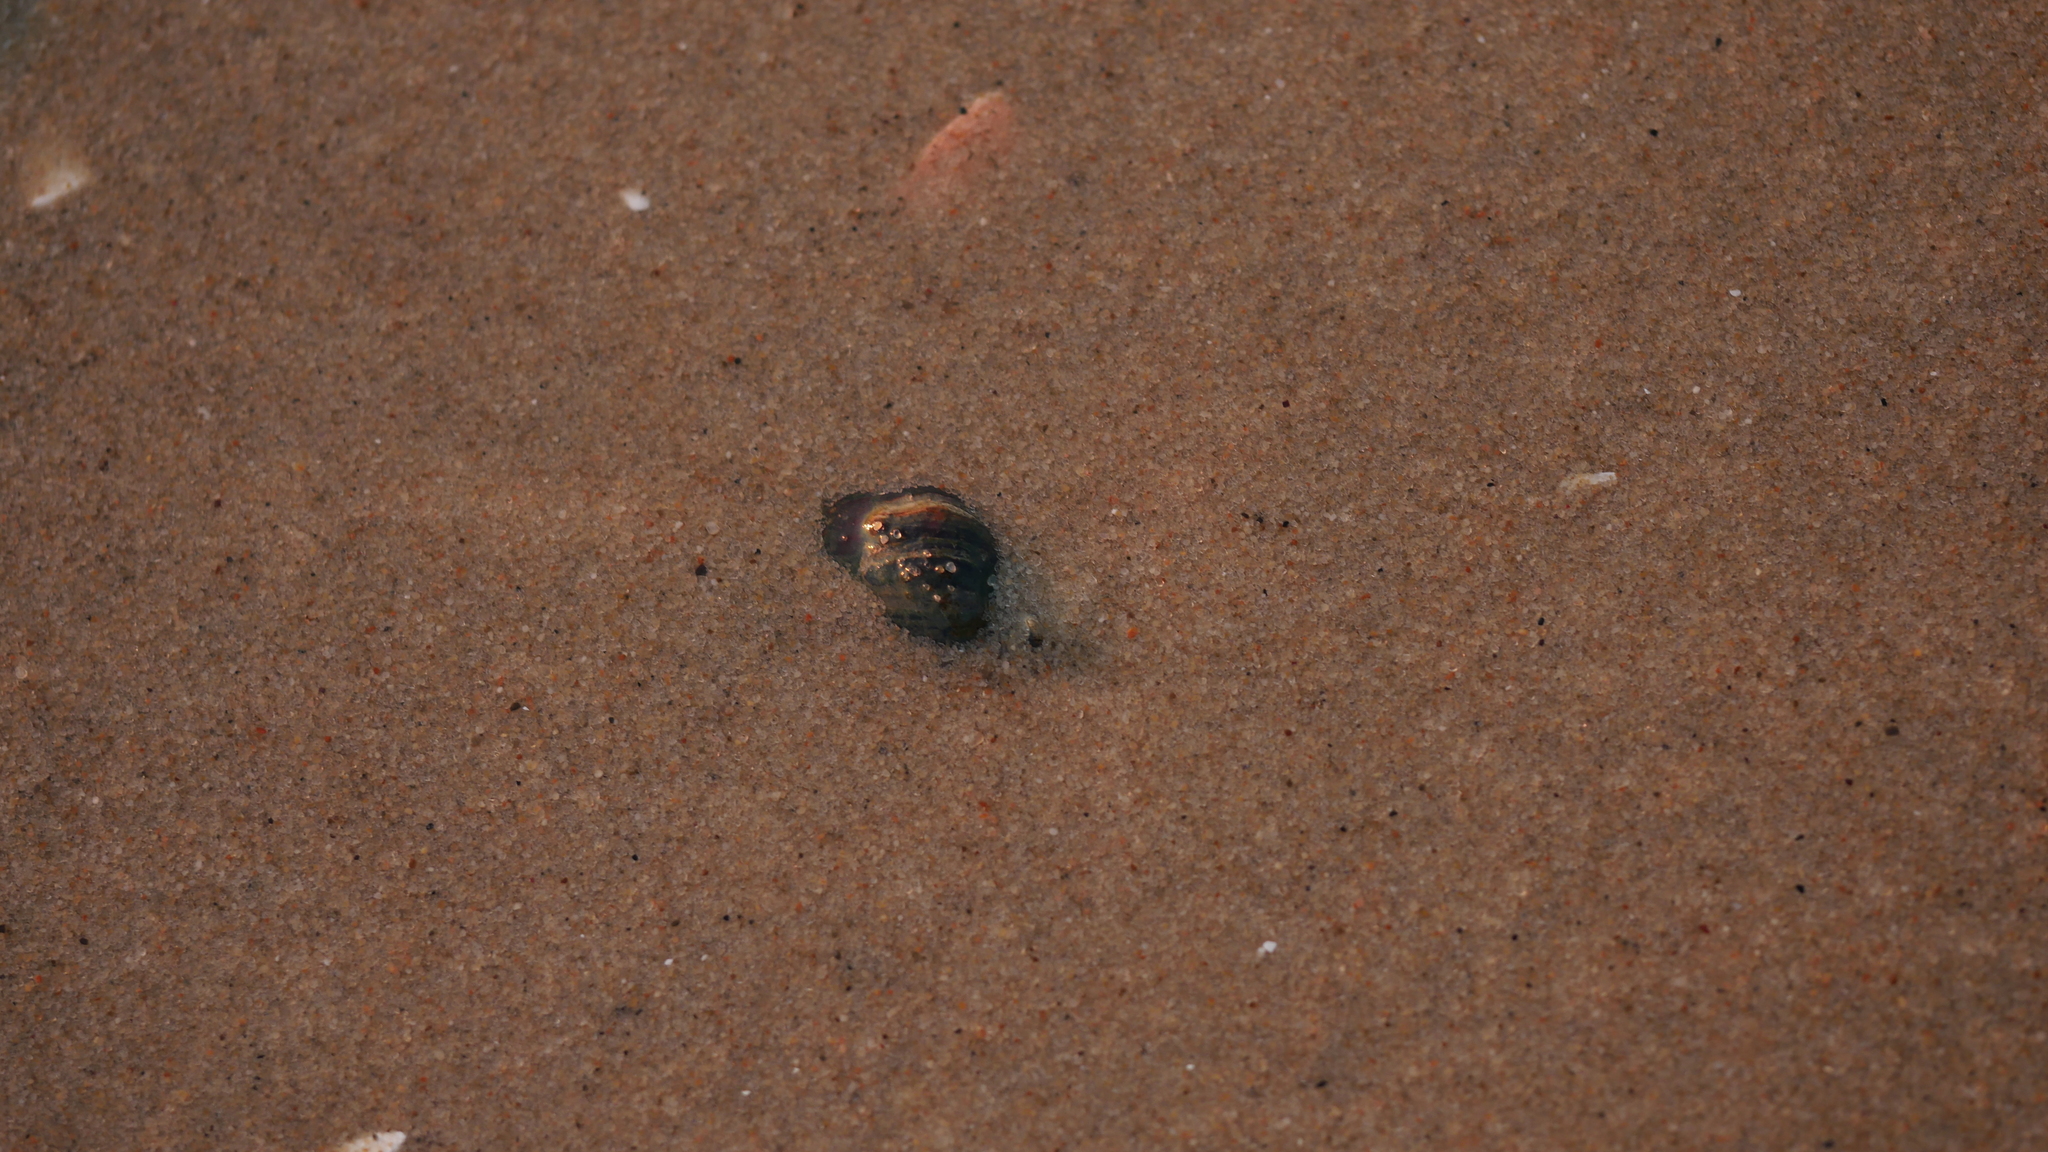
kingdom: Animalia
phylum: Mollusca
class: Gastropoda
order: Neogastropoda
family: Nassariidae
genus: Ilyanassa
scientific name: Ilyanassa obsoleta
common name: Eastern mudsnail
